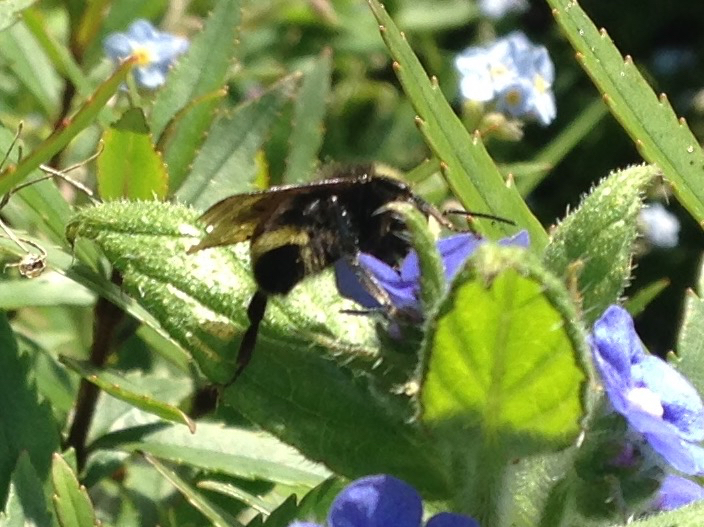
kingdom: Animalia
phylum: Arthropoda
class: Insecta
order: Hymenoptera
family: Apidae
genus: Pyrobombus
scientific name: Pyrobombus
